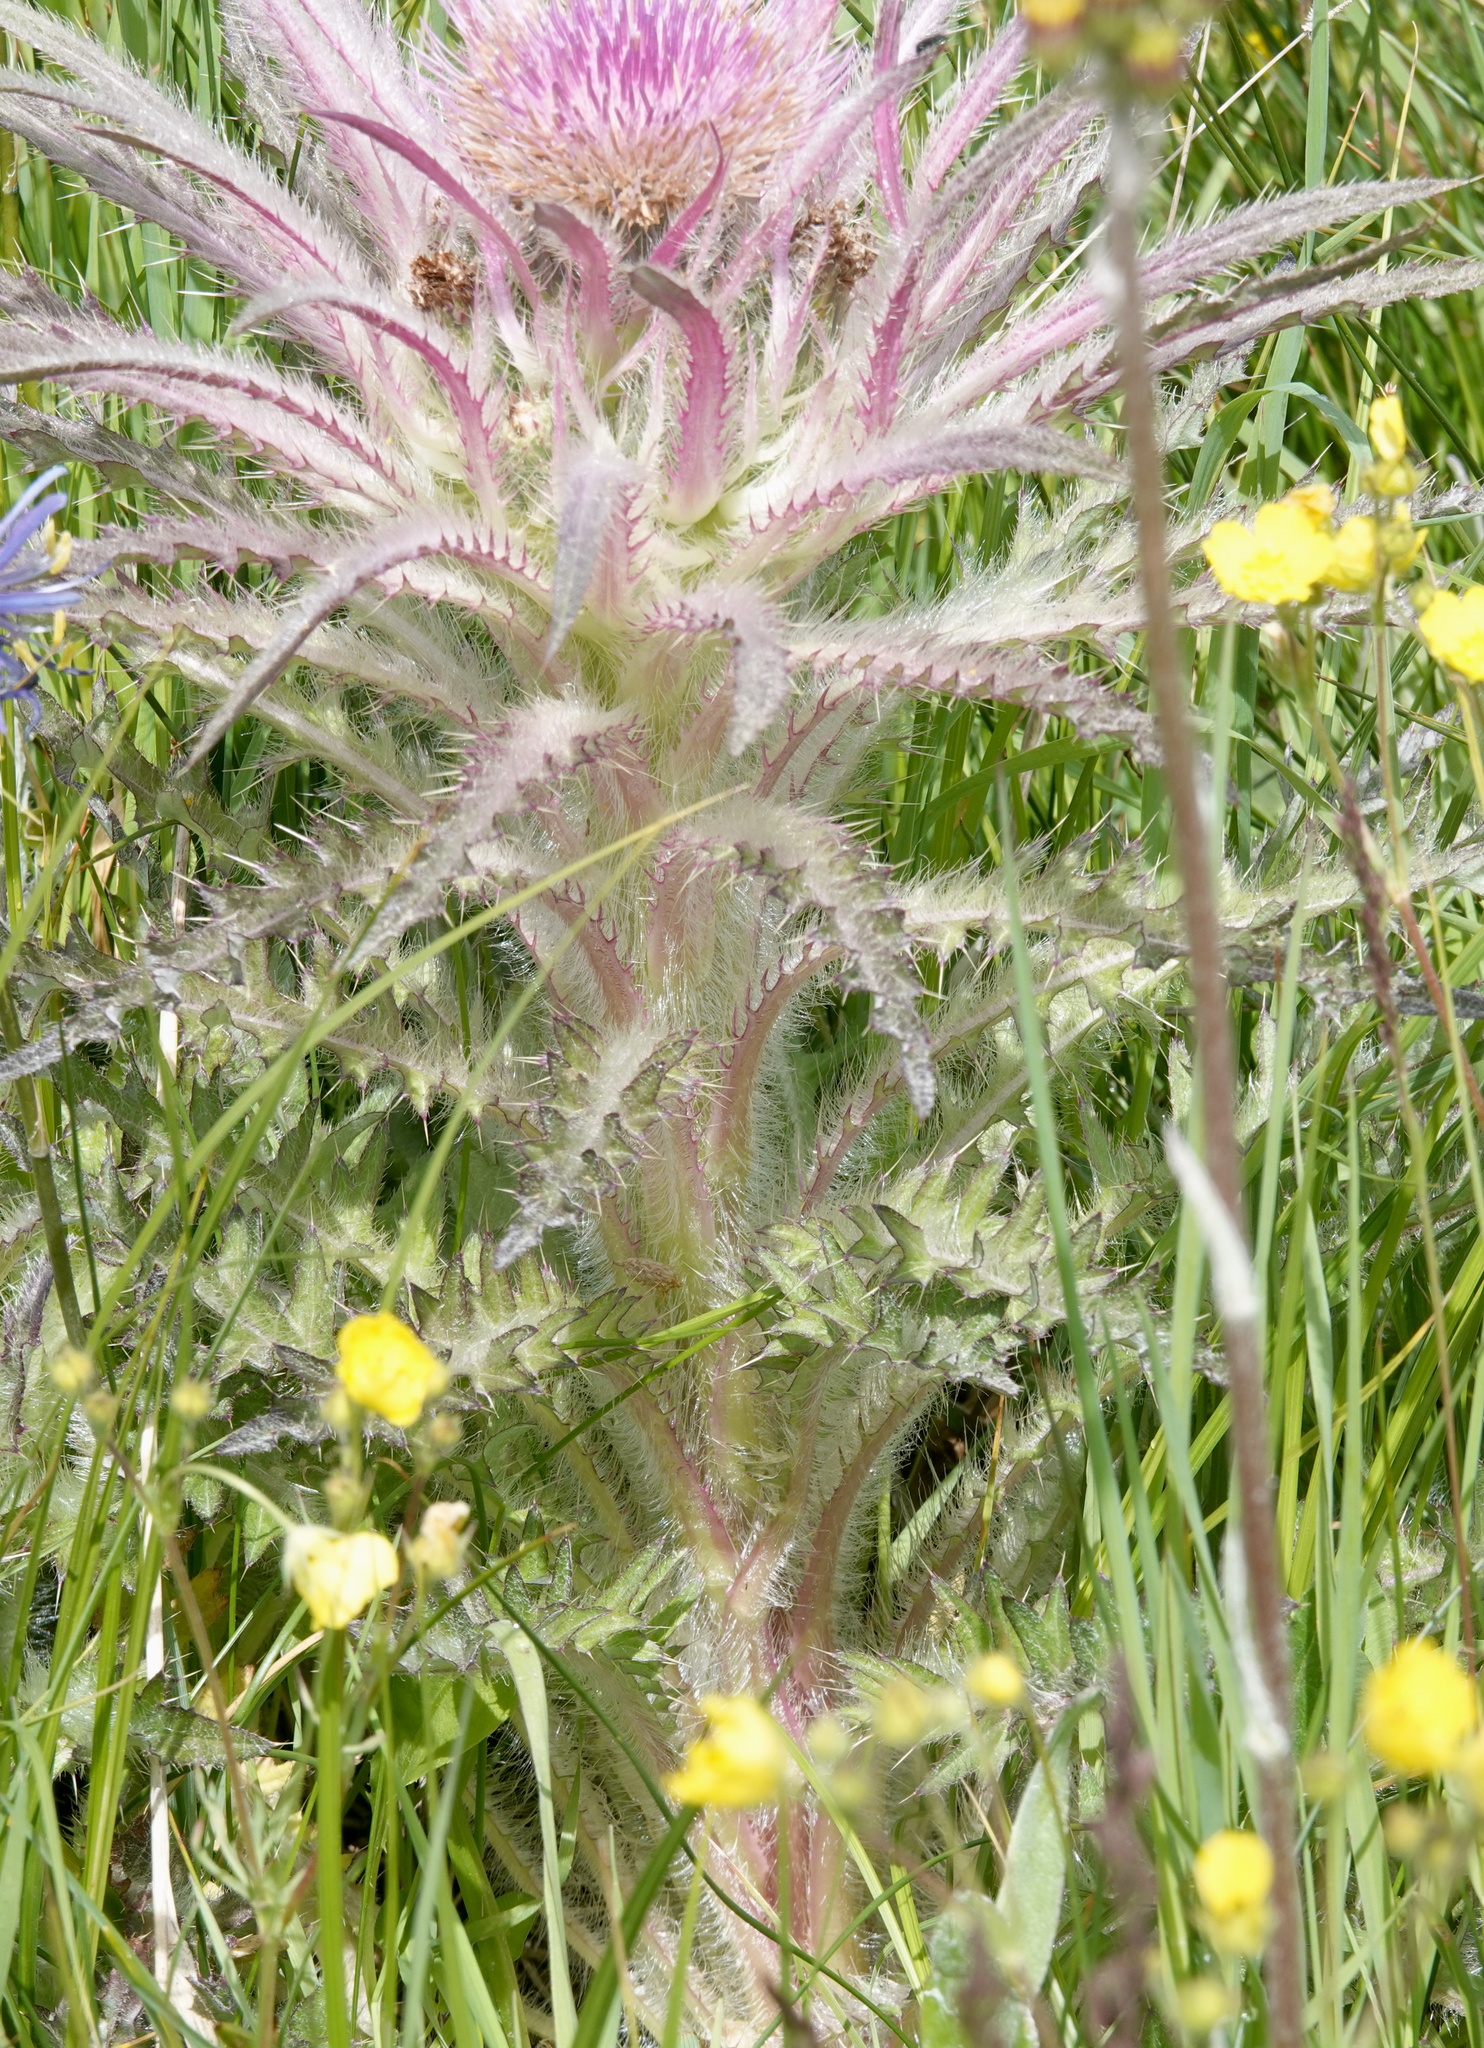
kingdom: Plantae
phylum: Tracheophyta
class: Magnoliopsida
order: Asterales
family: Asteraceae
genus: Cirsium
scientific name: Cirsium scariosum
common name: Meadow thistle
